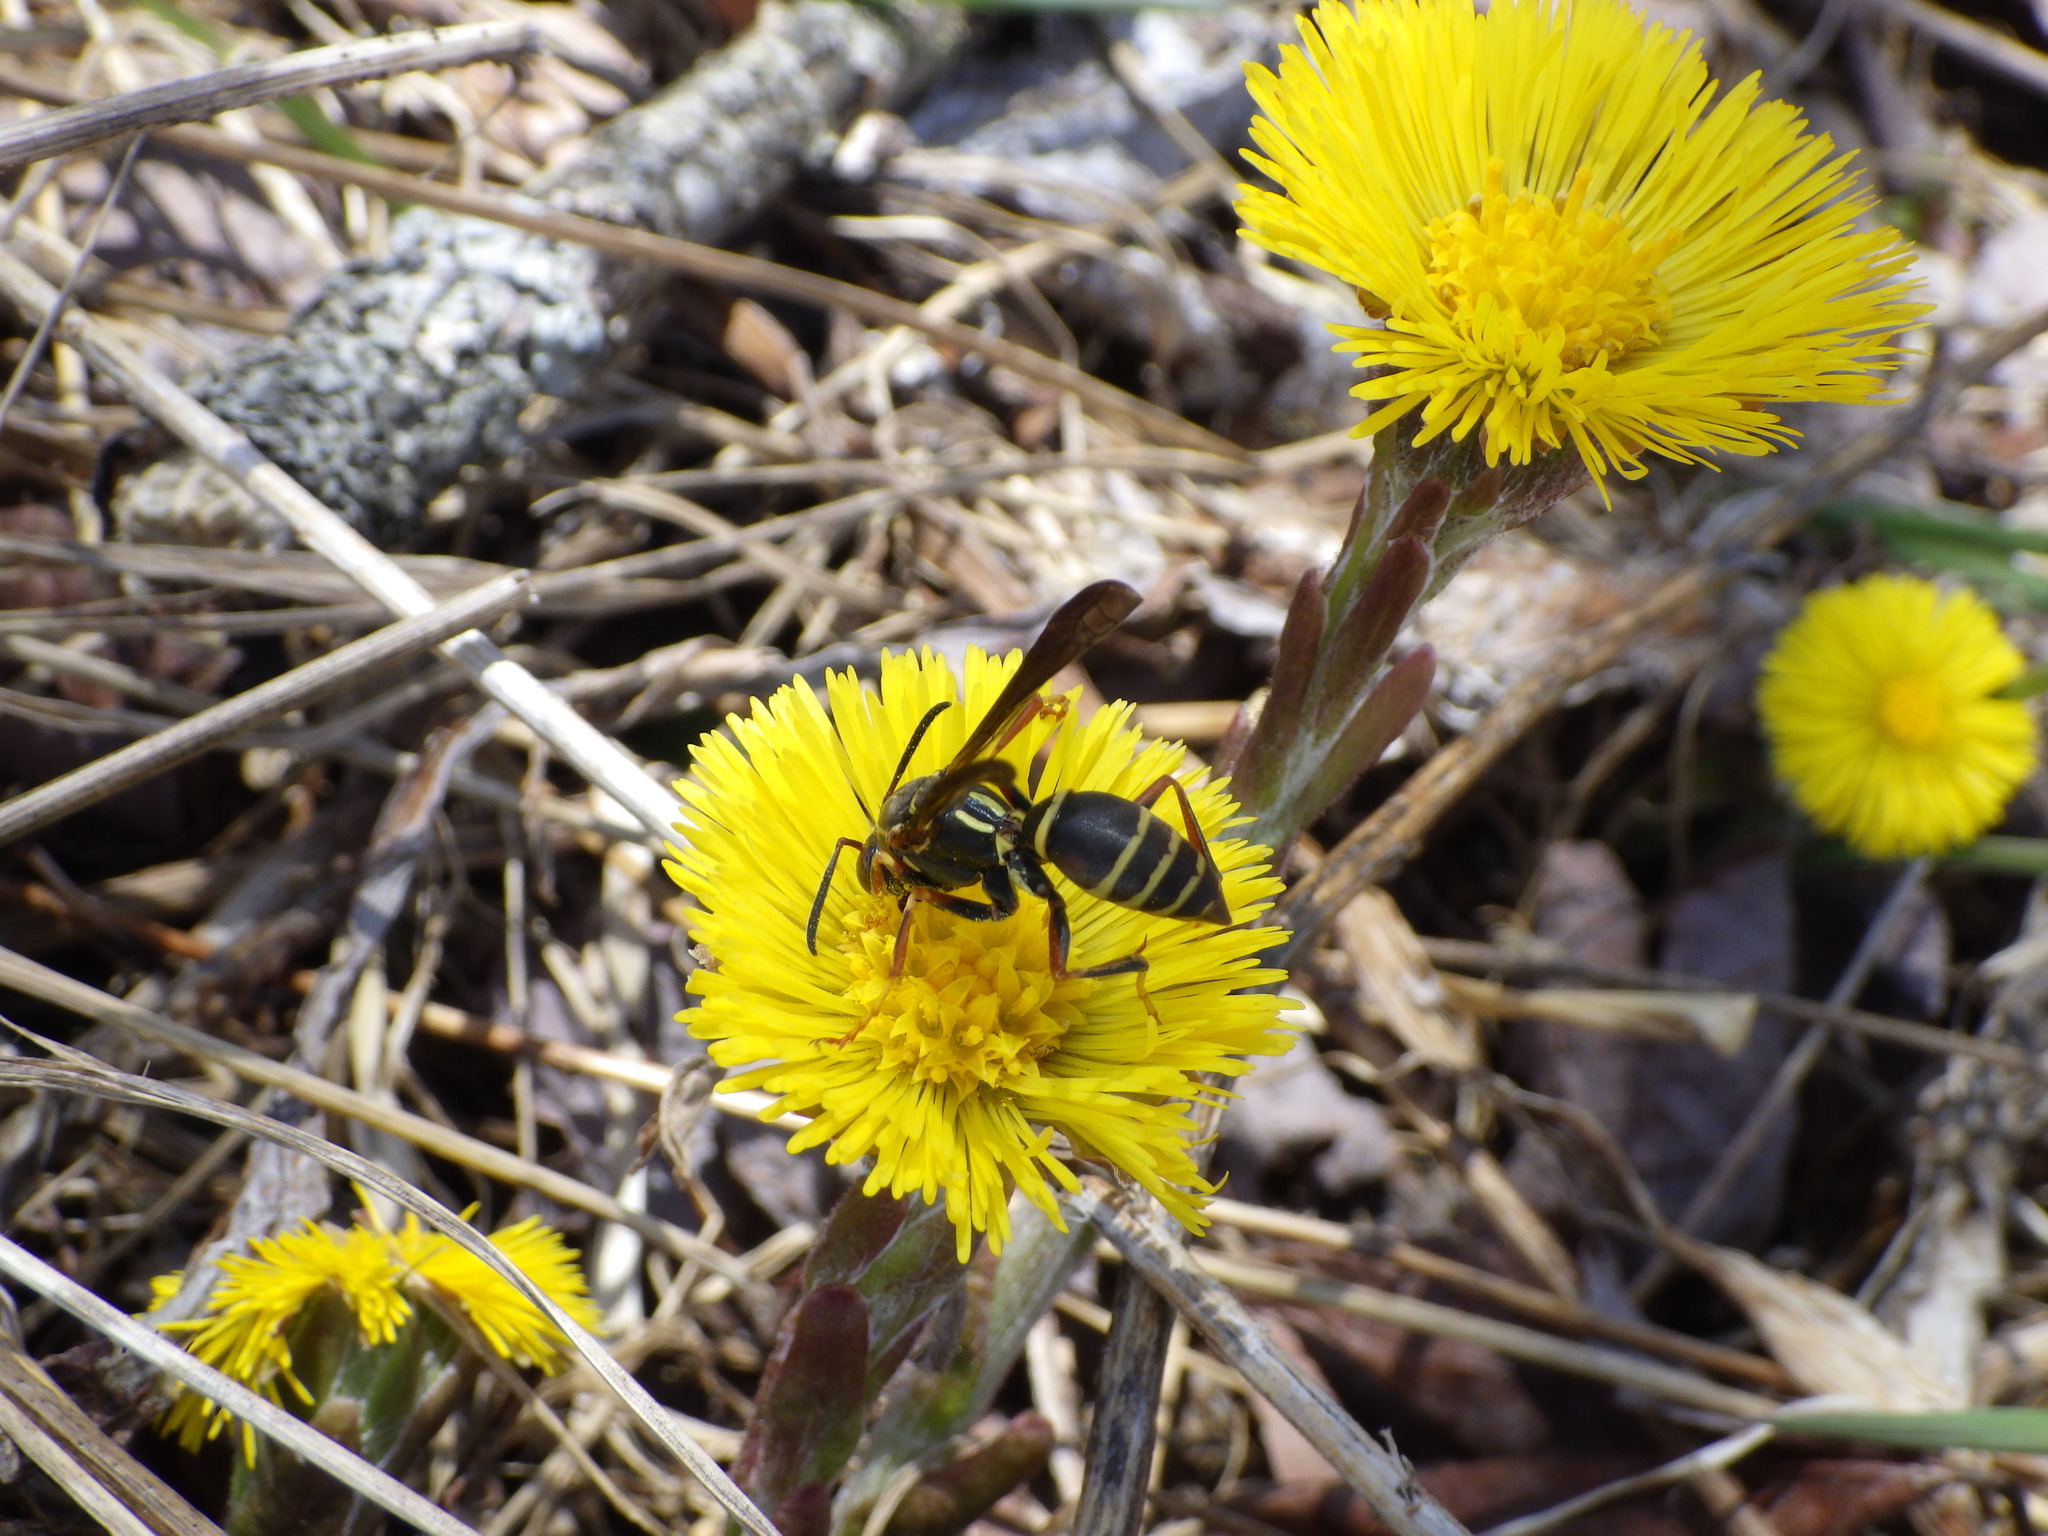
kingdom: Animalia
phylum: Arthropoda
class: Insecta
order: Hymenoptera
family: Eumenidae
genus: Polistes
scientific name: Polistes fuscatus
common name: Dark paper wasp
